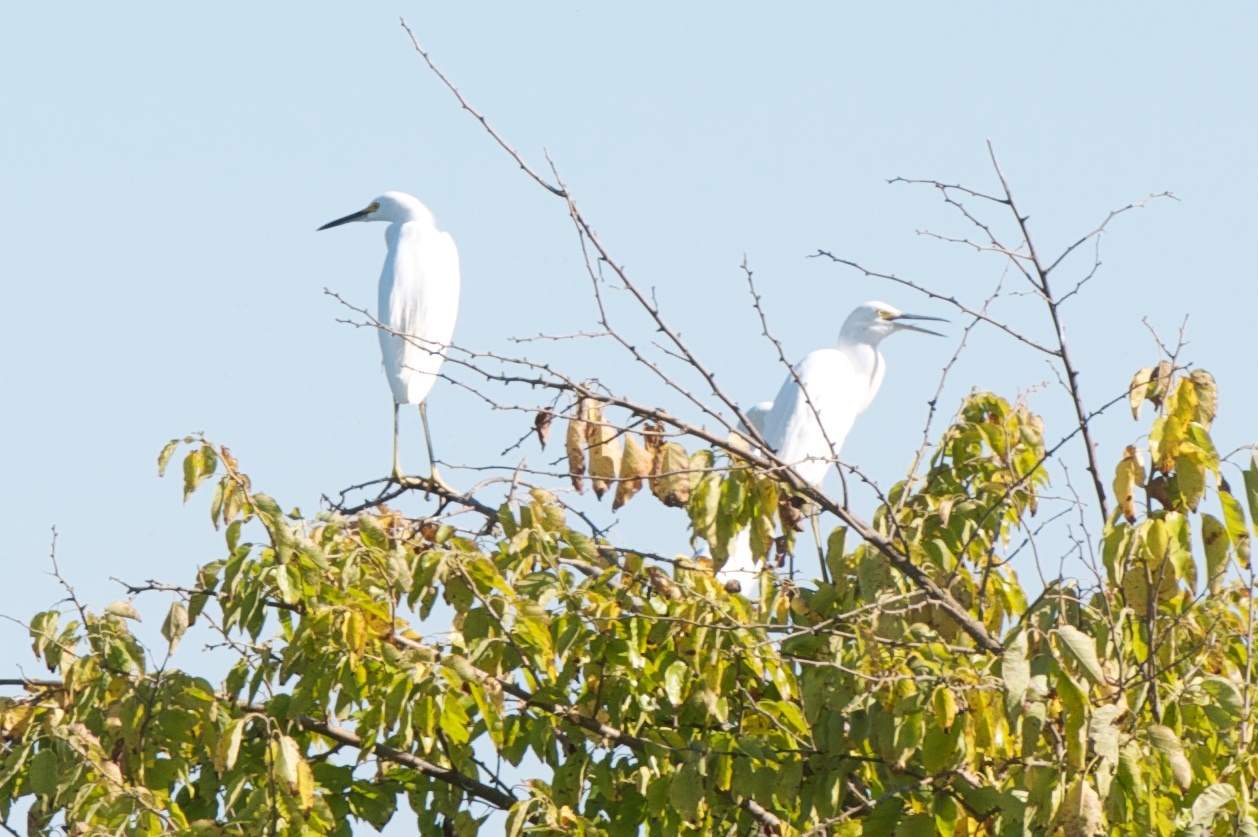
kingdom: Animalia
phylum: Chordata
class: Aves
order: Pelecaniformes
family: Ardeidae
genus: Egretta
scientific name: Egretta thula
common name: Snowy egret
